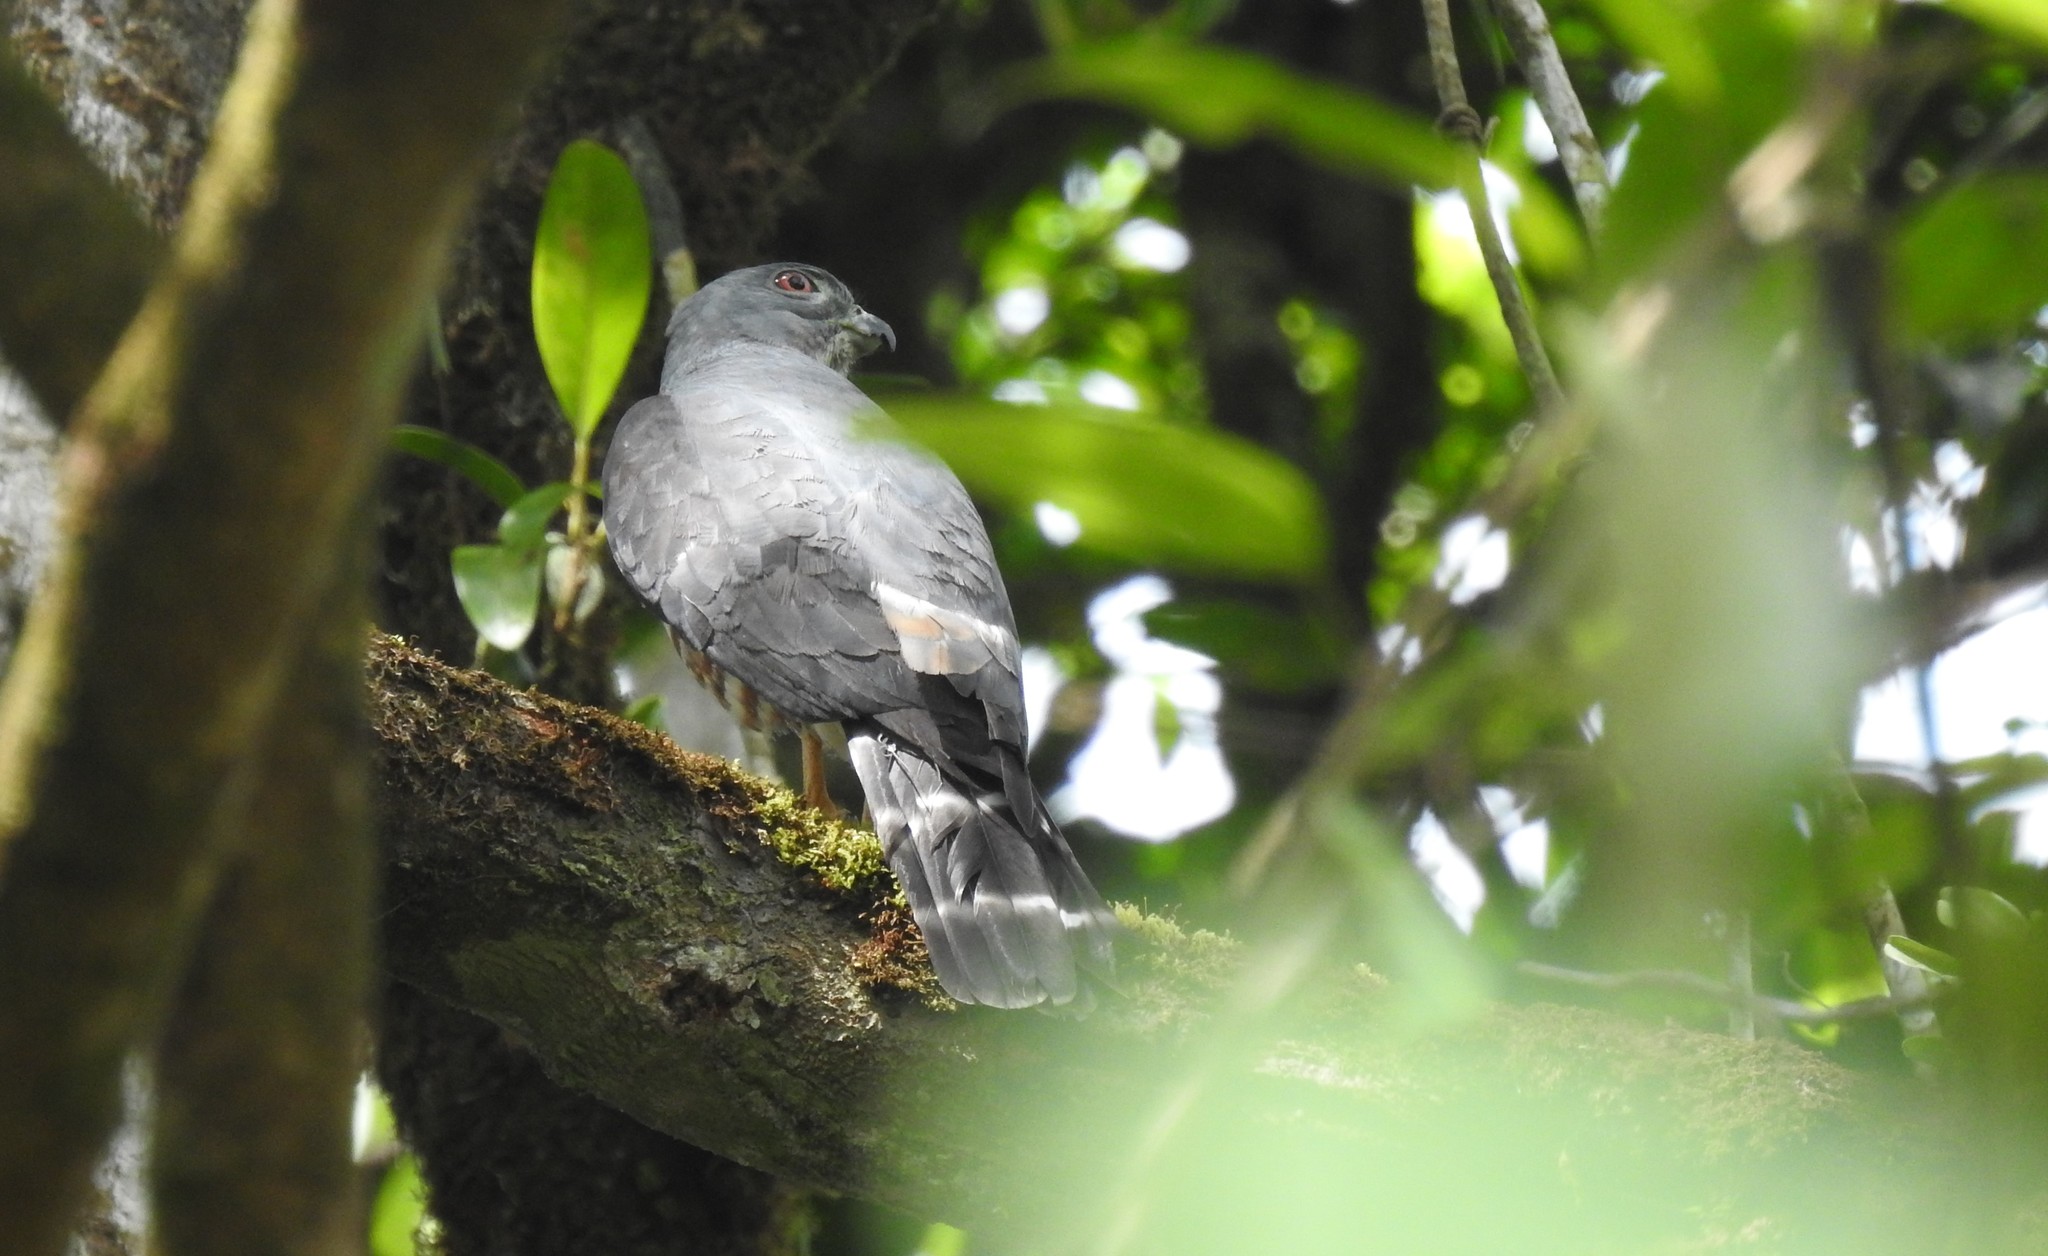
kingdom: Animalia
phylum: Chordata
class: Aves
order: Accipitriformes
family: Accipitridae
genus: Harpagus
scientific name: Harpagus bidentatus
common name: Double-toothed kite
